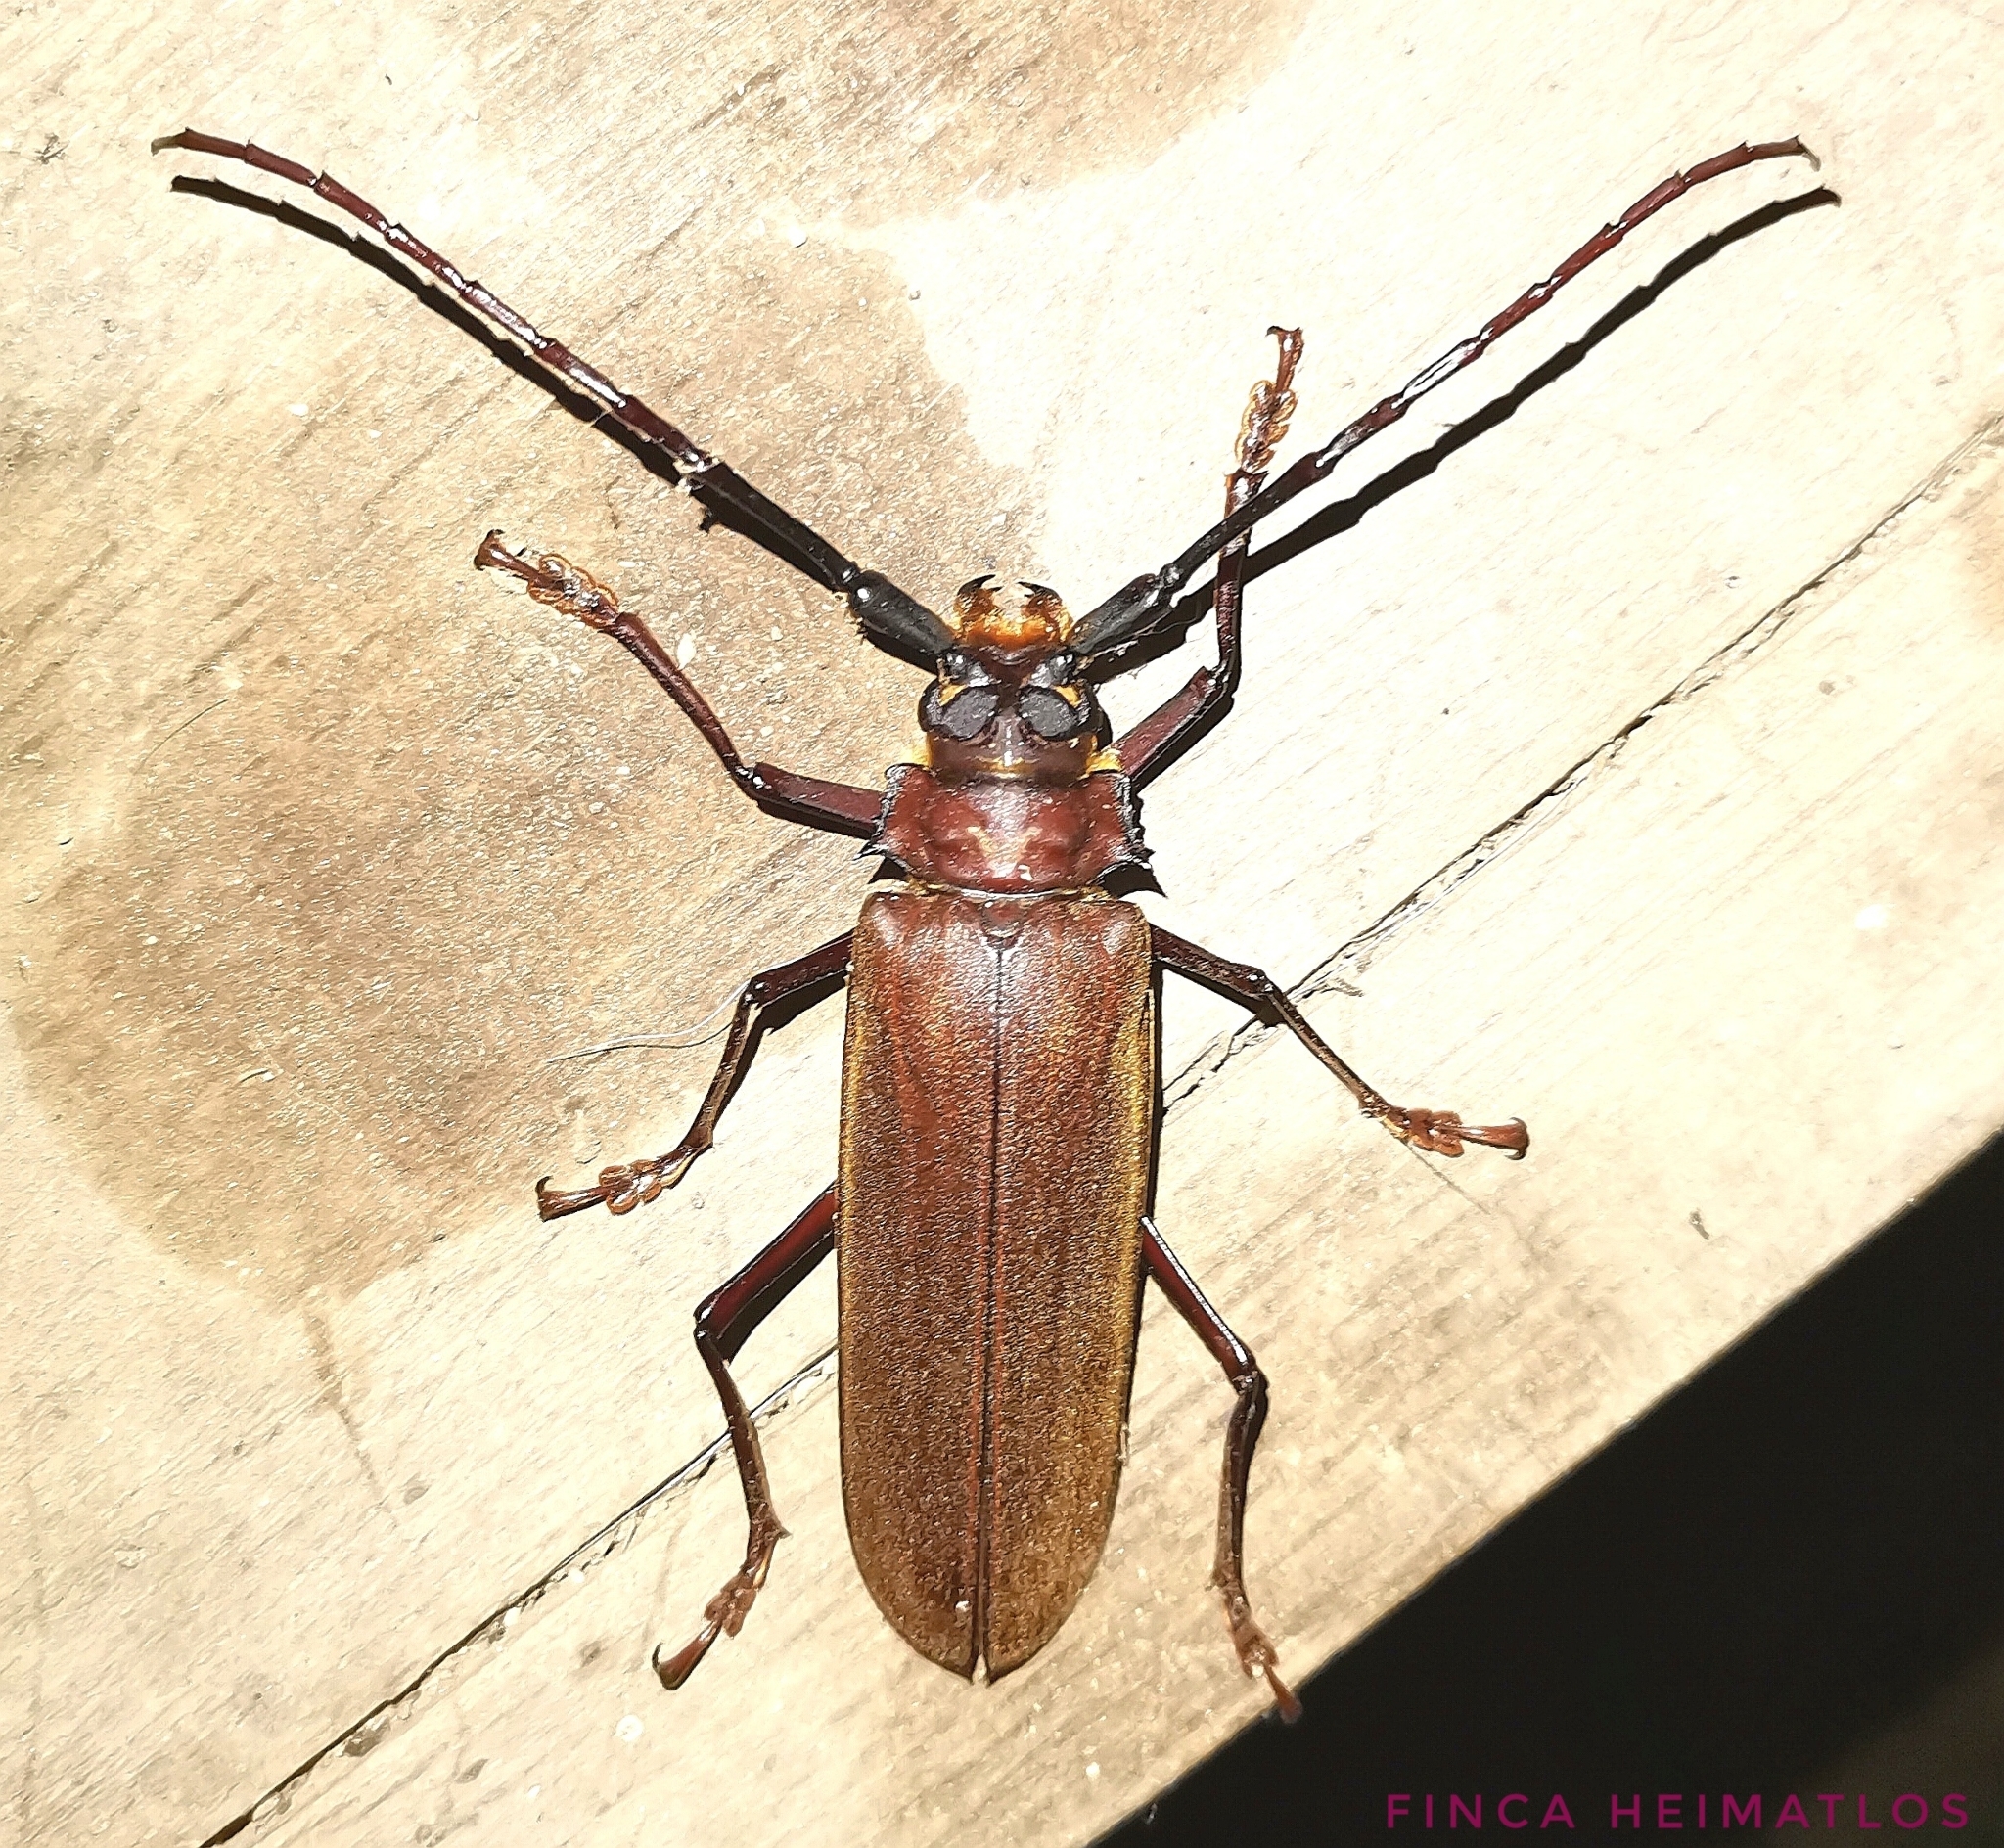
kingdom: Animalia
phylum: Arthropoda
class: Insecta
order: Coleoptera
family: Cerambycidae
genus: Orthomegas
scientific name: Orthomegas haxairei
